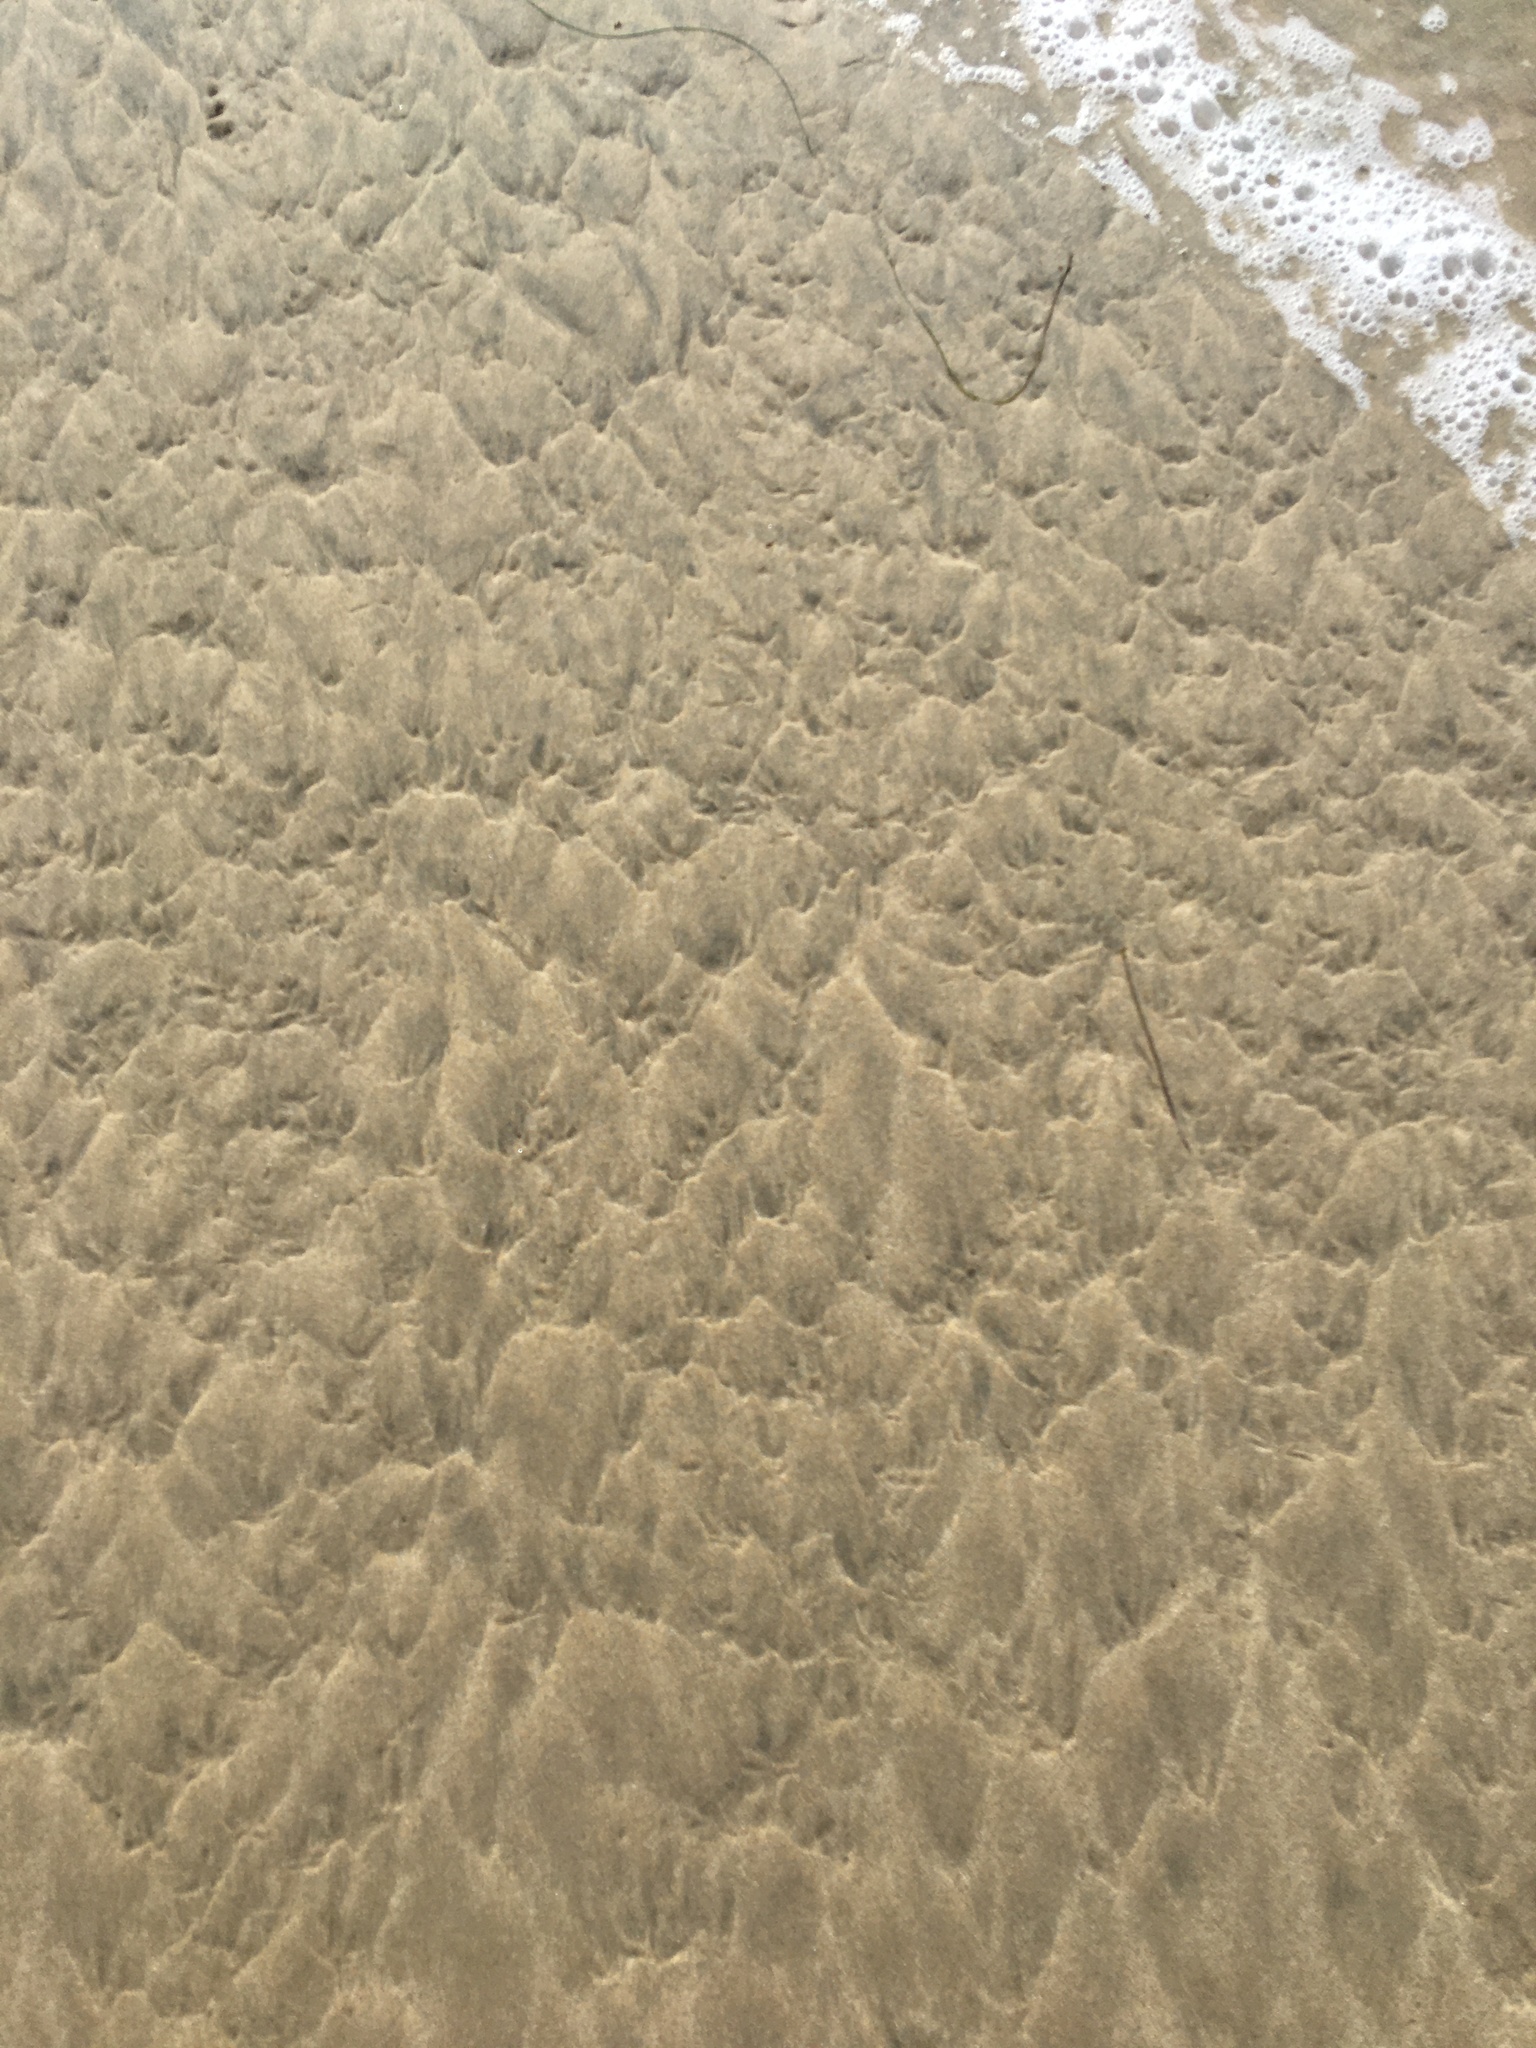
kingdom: Animalia
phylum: Arthropoda
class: Malacostraca
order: Decapoda
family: Hippidae
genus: Emerita
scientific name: Emerita analoga
